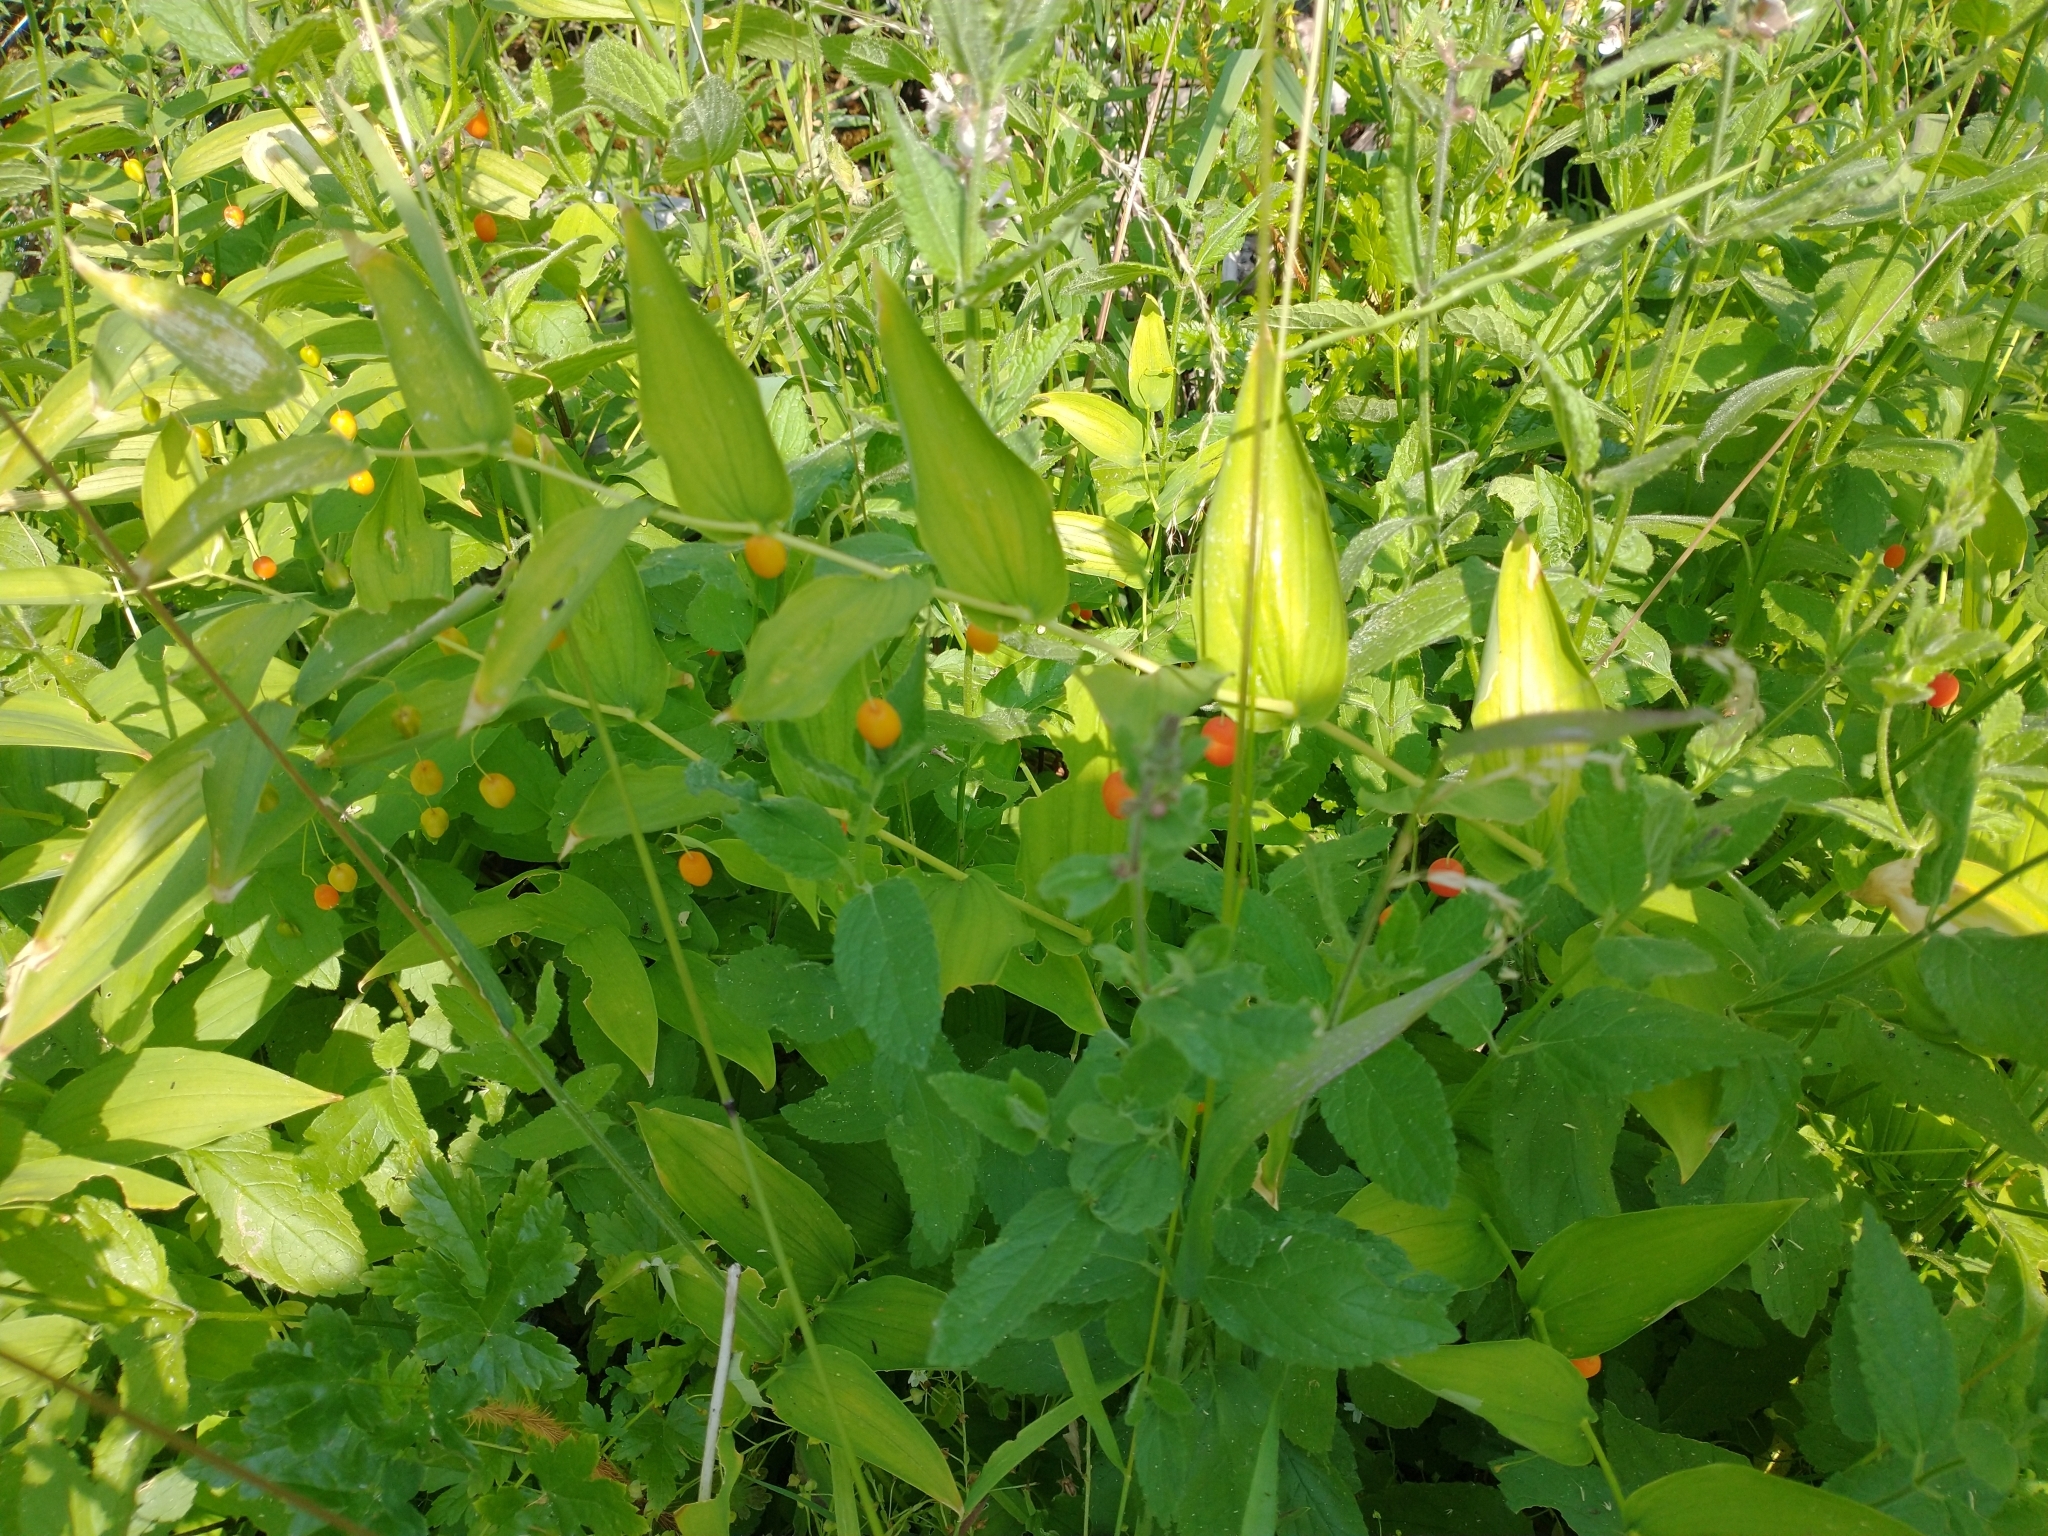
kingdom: Plantae
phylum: Tracheophyta
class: Liliopsida
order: Liliales
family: Liliaceae
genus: Streptopus
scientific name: Streptopus amplexifolius
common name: Clasp twisted stalk
